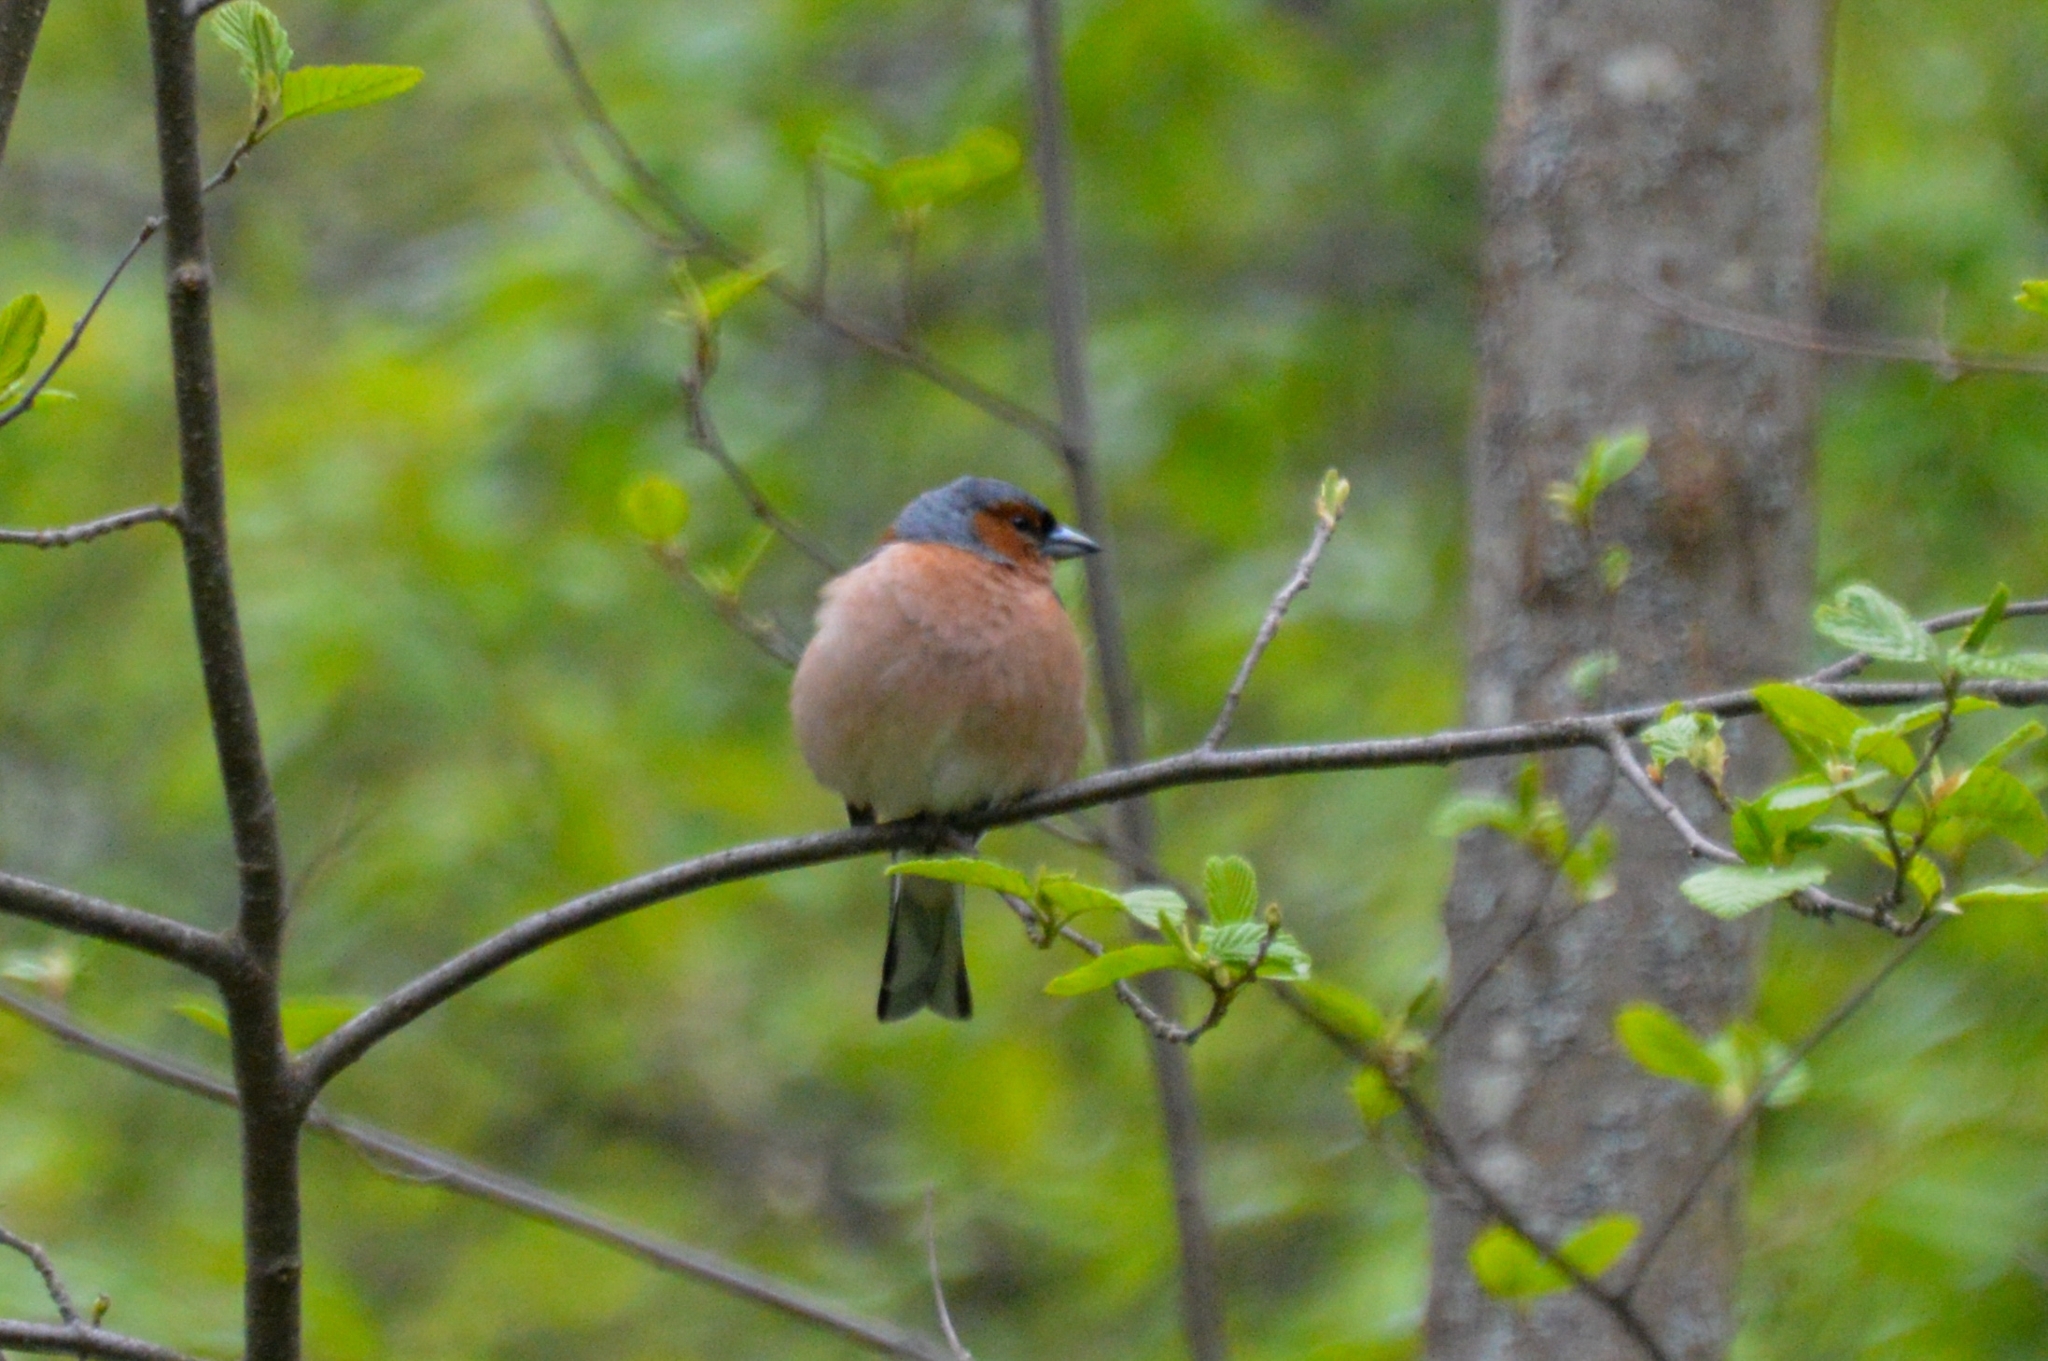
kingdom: Animalia
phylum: Chordata
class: Aves
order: Passeriformes
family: Fringillidae
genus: Fringilla
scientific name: Fringilla coelebs
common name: Common chaffinch
